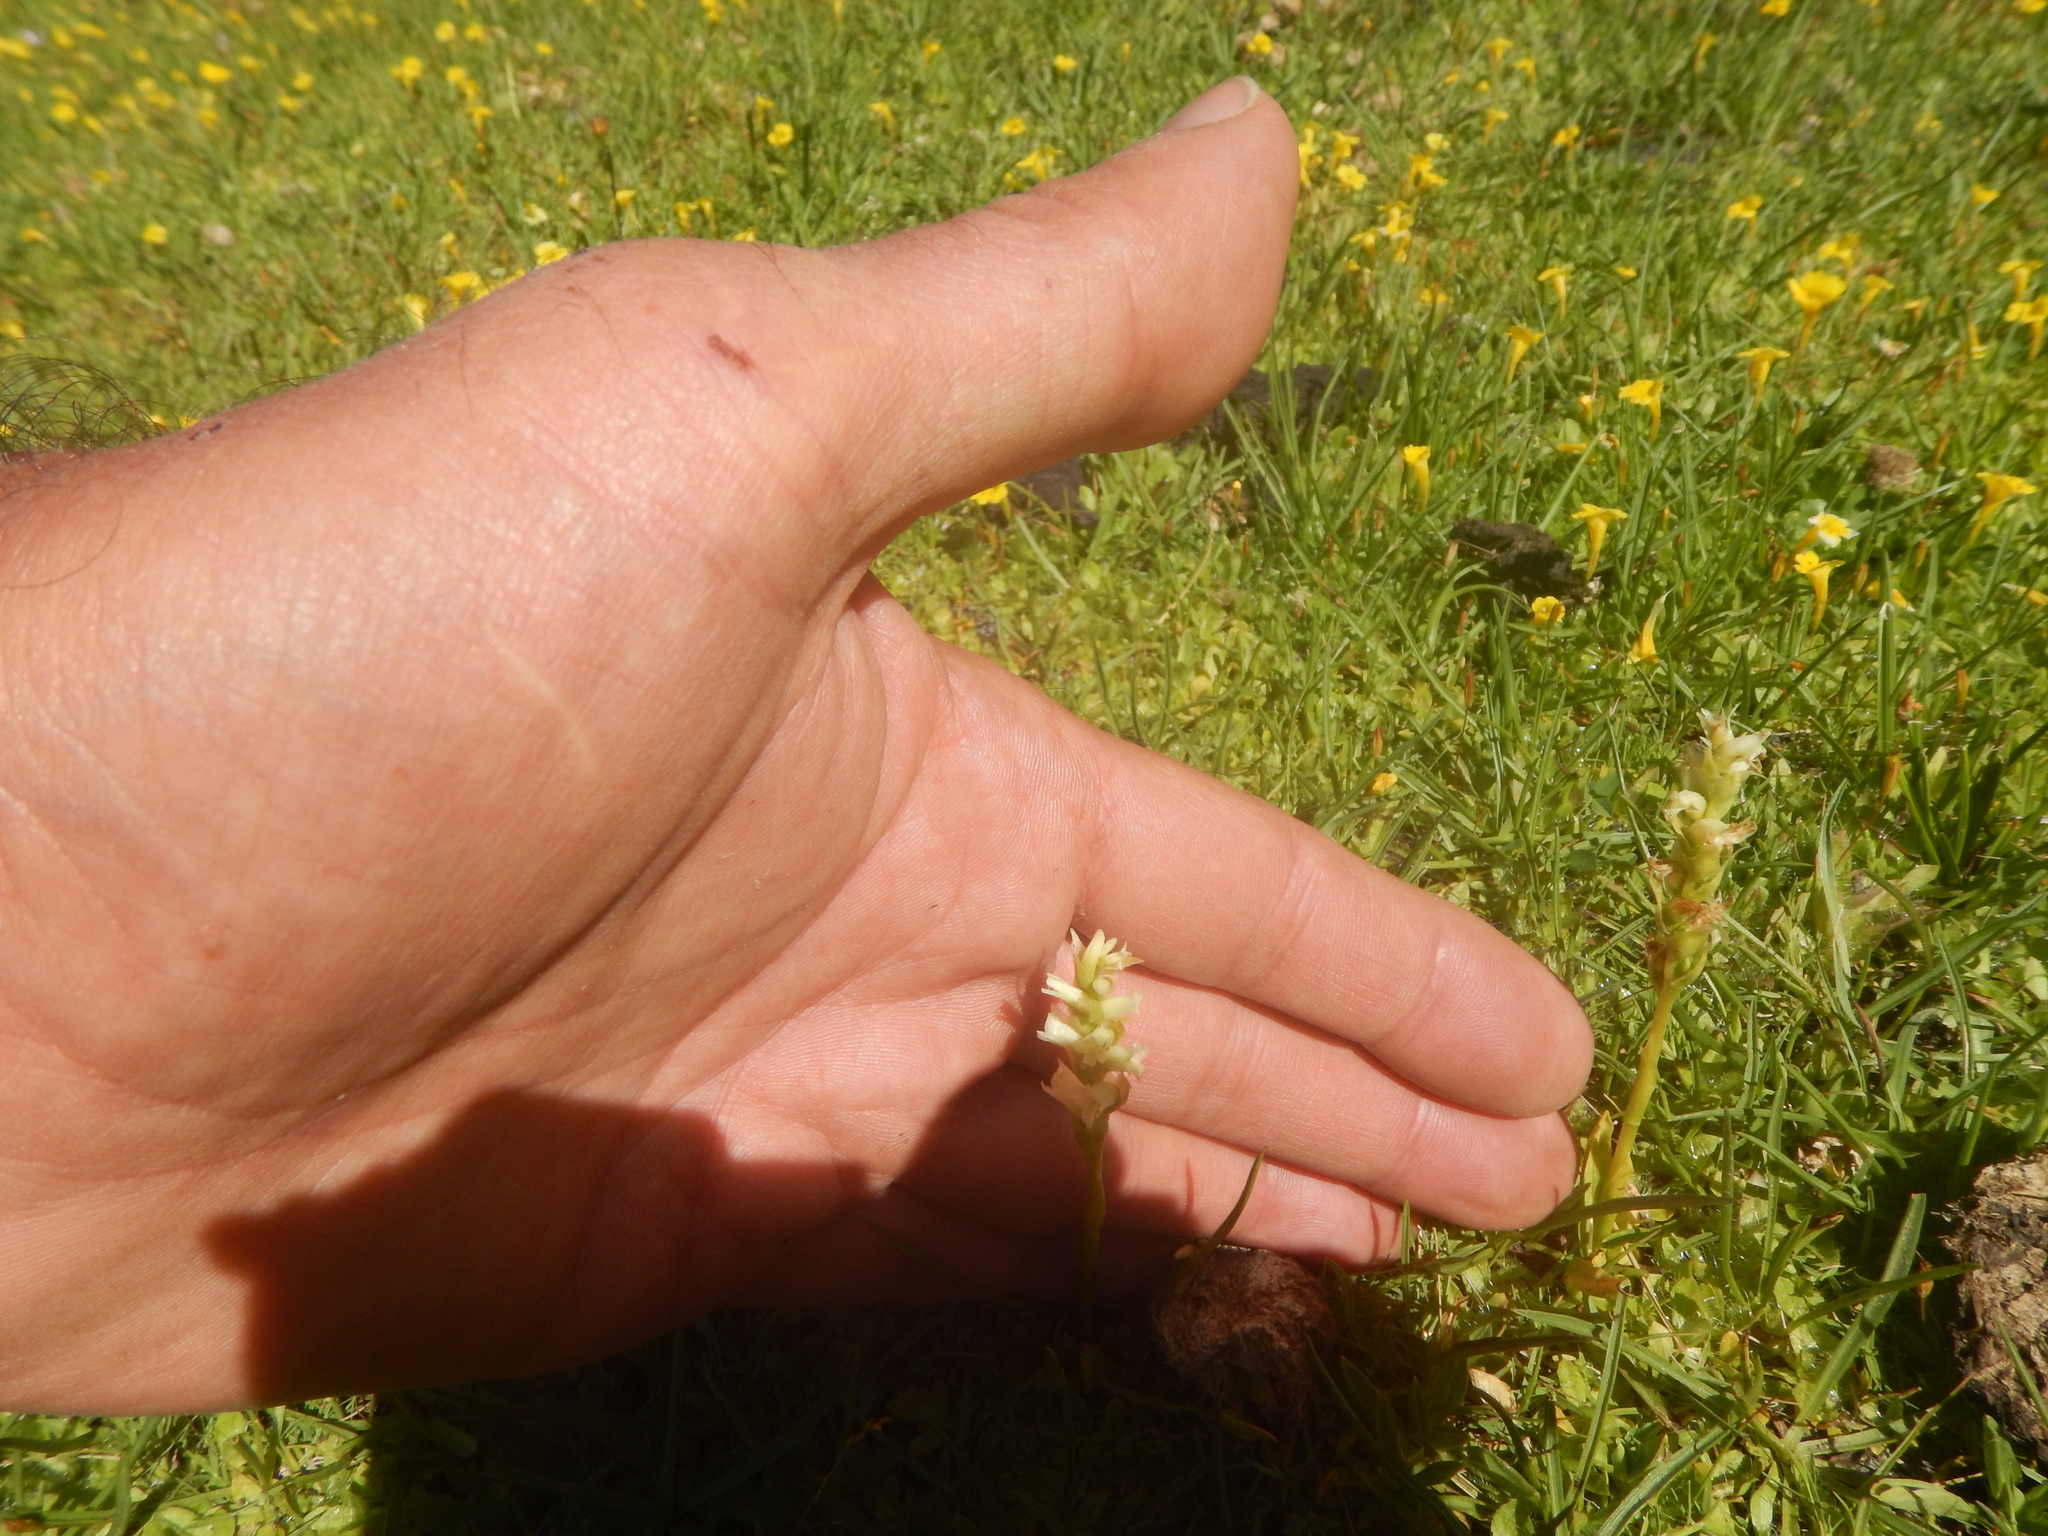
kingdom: Plantae
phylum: Tracheophyta
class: Liliopsida
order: Asparagales
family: Orchidaceae
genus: Spiranthes
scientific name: Spiranthes stellata
